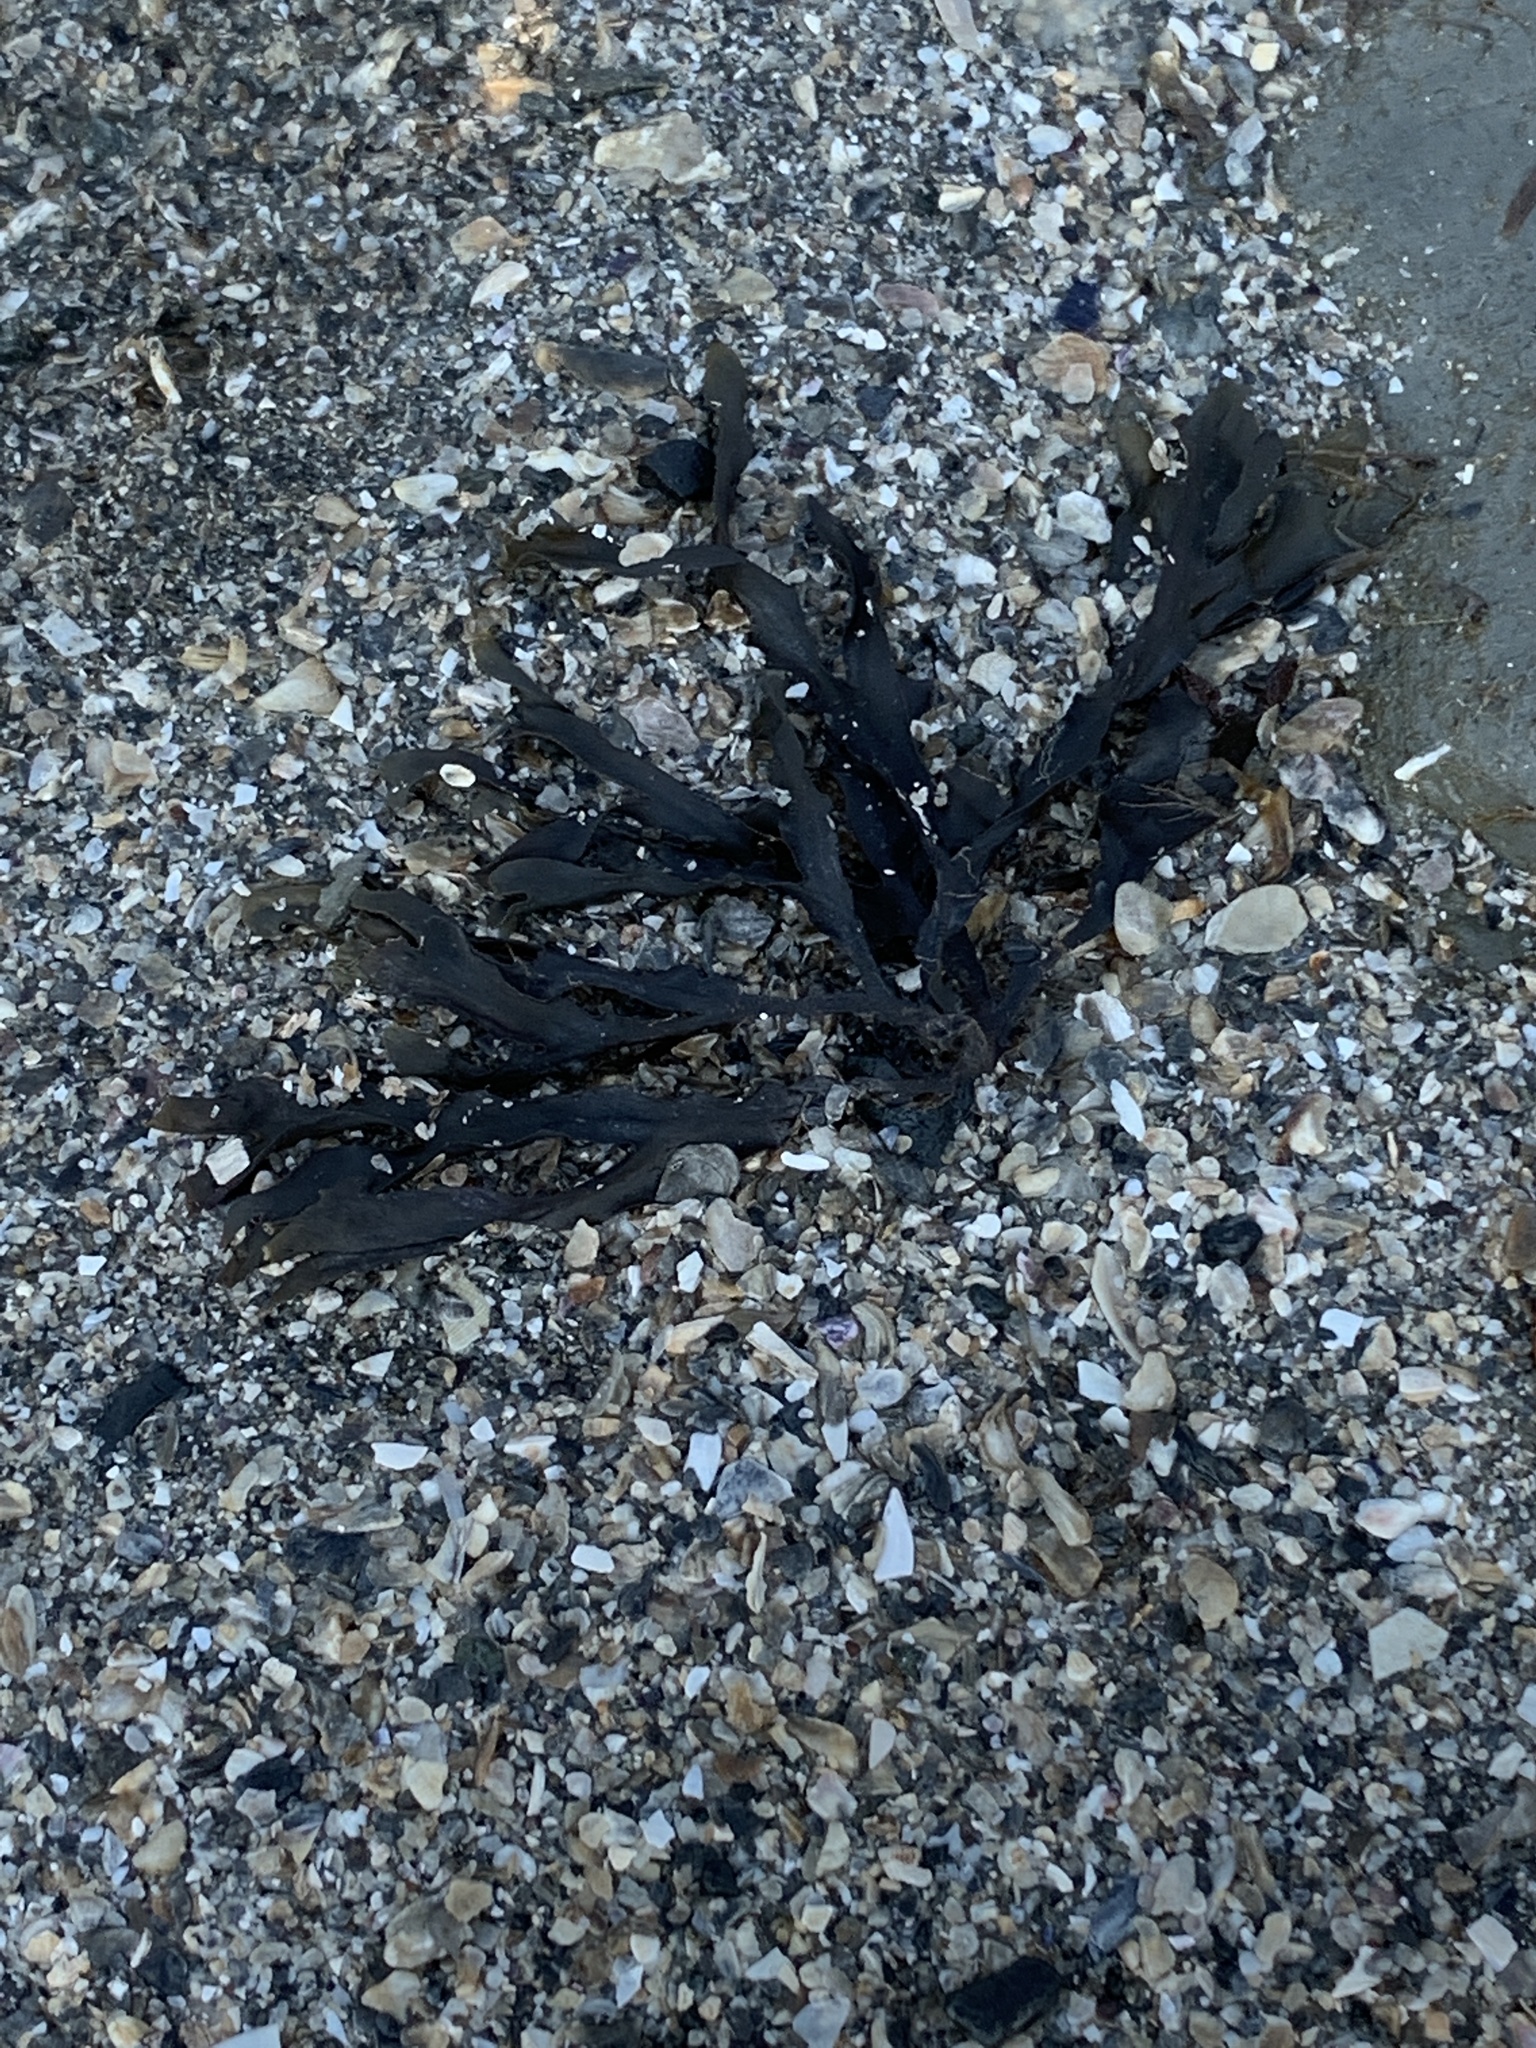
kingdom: Chromista
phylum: Ochrophyta
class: Phaeophyceae
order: Fucales
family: Fucaceae
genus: Fucus
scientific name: Fucus distichus
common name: Rockweed
